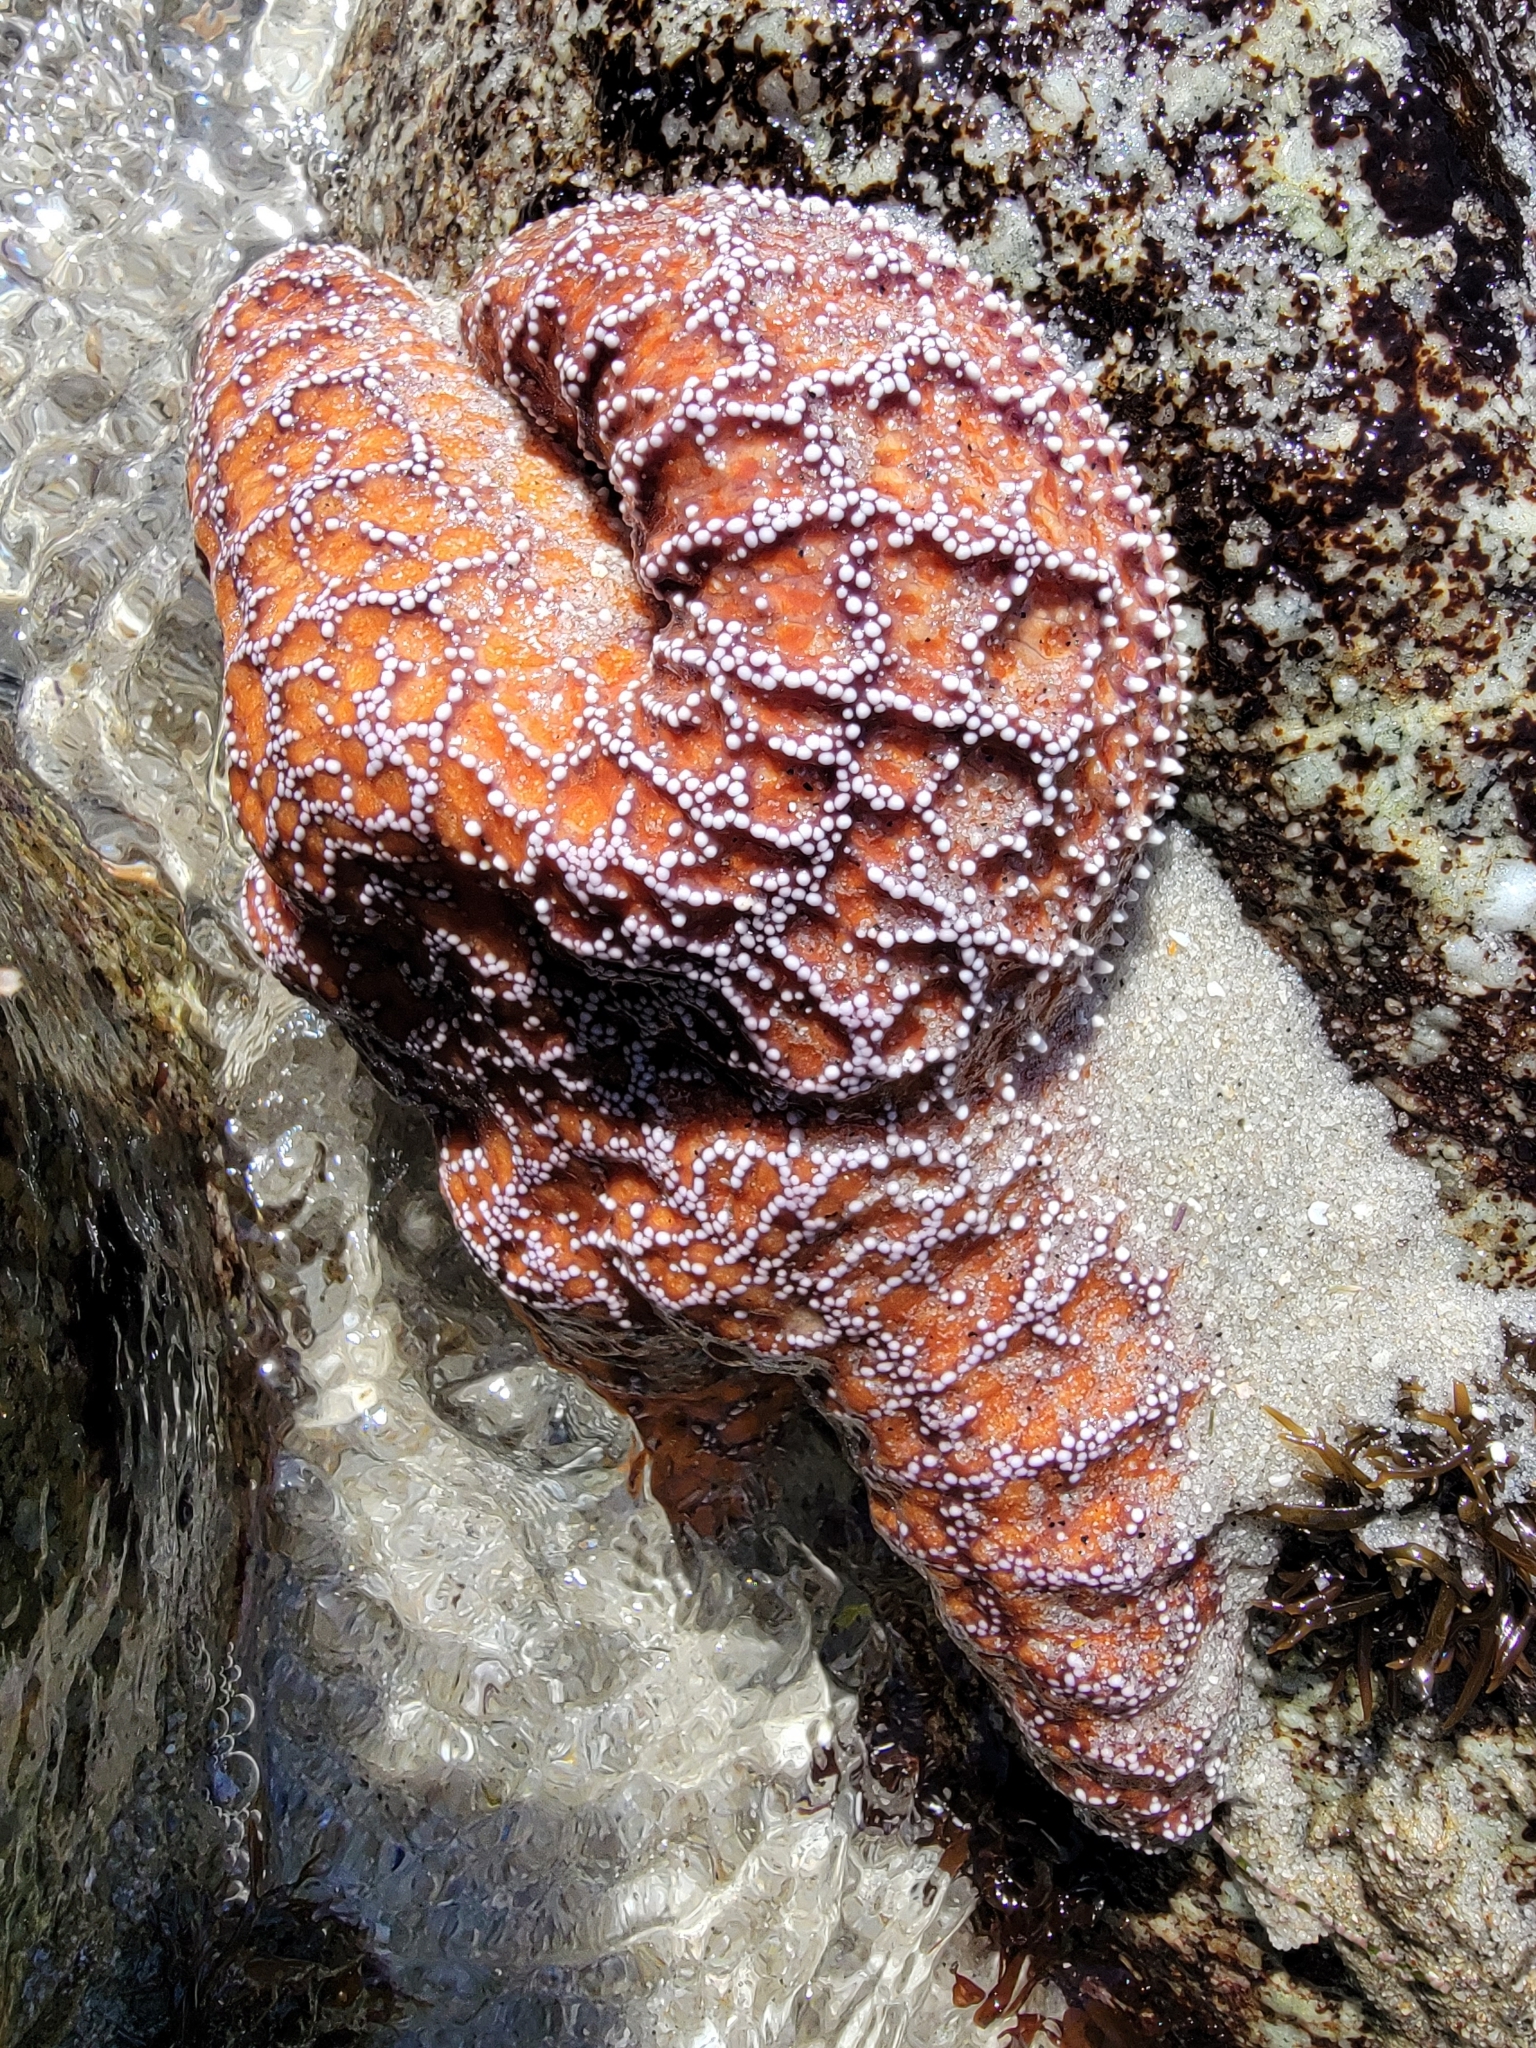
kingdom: Animalia
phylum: Echinodermata
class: Asteroidea
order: Forcipulatida
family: Asteriidae
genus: Pisaster
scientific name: Pisaster ochraceus
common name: Ochre stars
